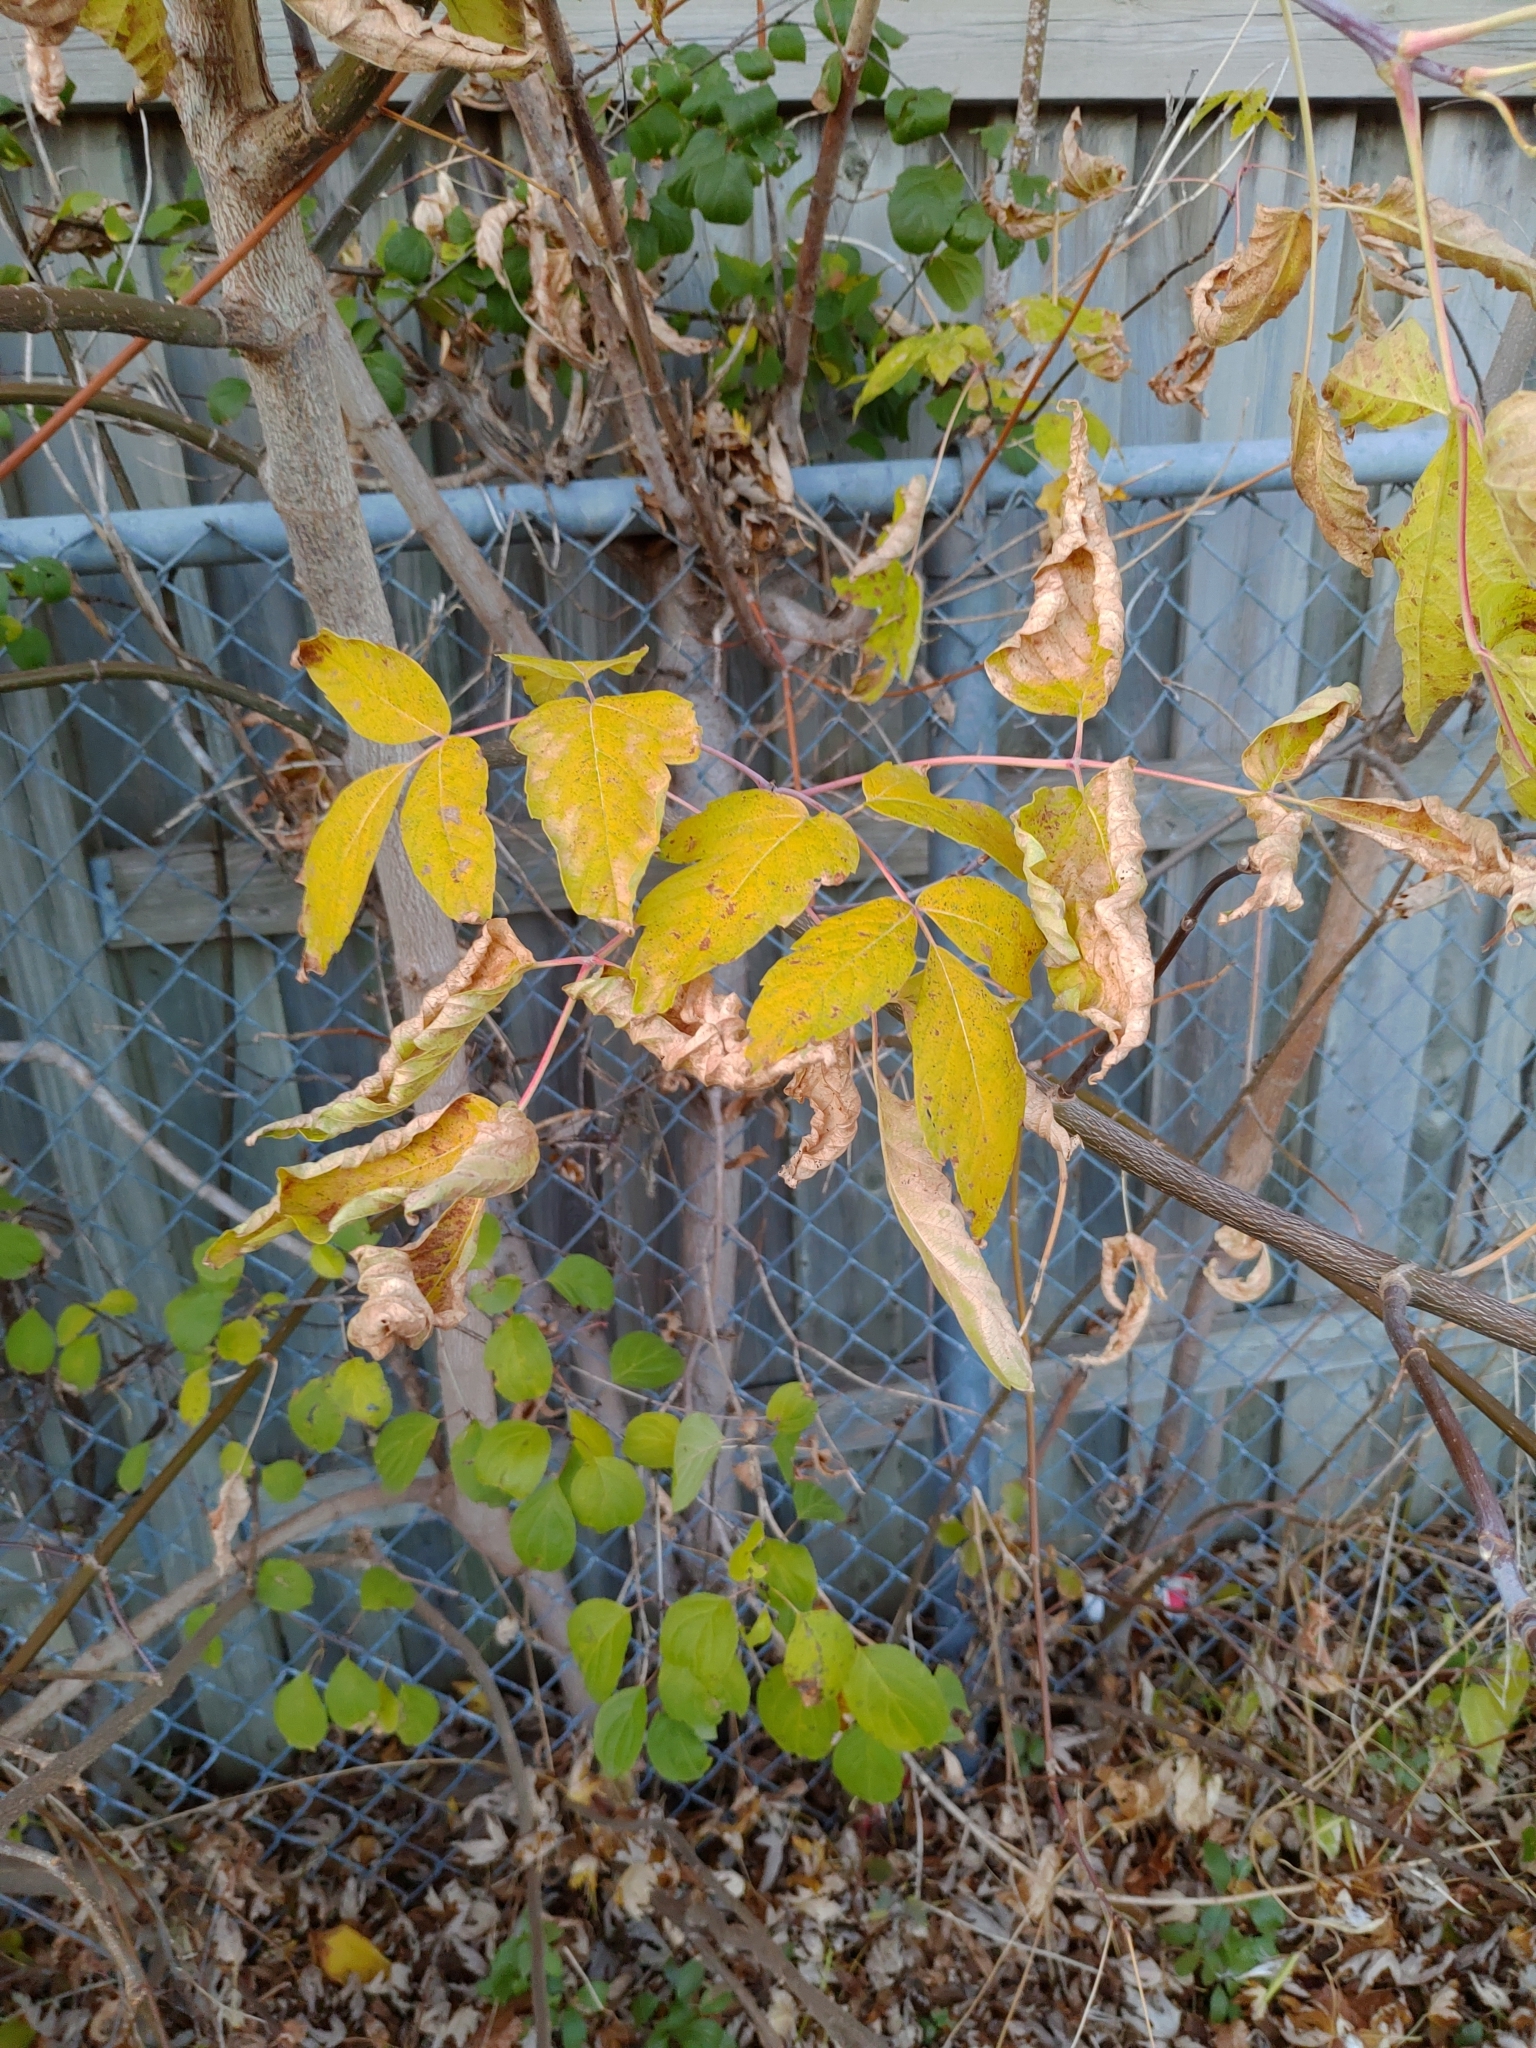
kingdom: Plantae
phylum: Tracheophyta
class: Magnoliopsida
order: Sapindales
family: Sapindaceae
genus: Acer
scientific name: Acer negundo
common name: Ashleaf maple
